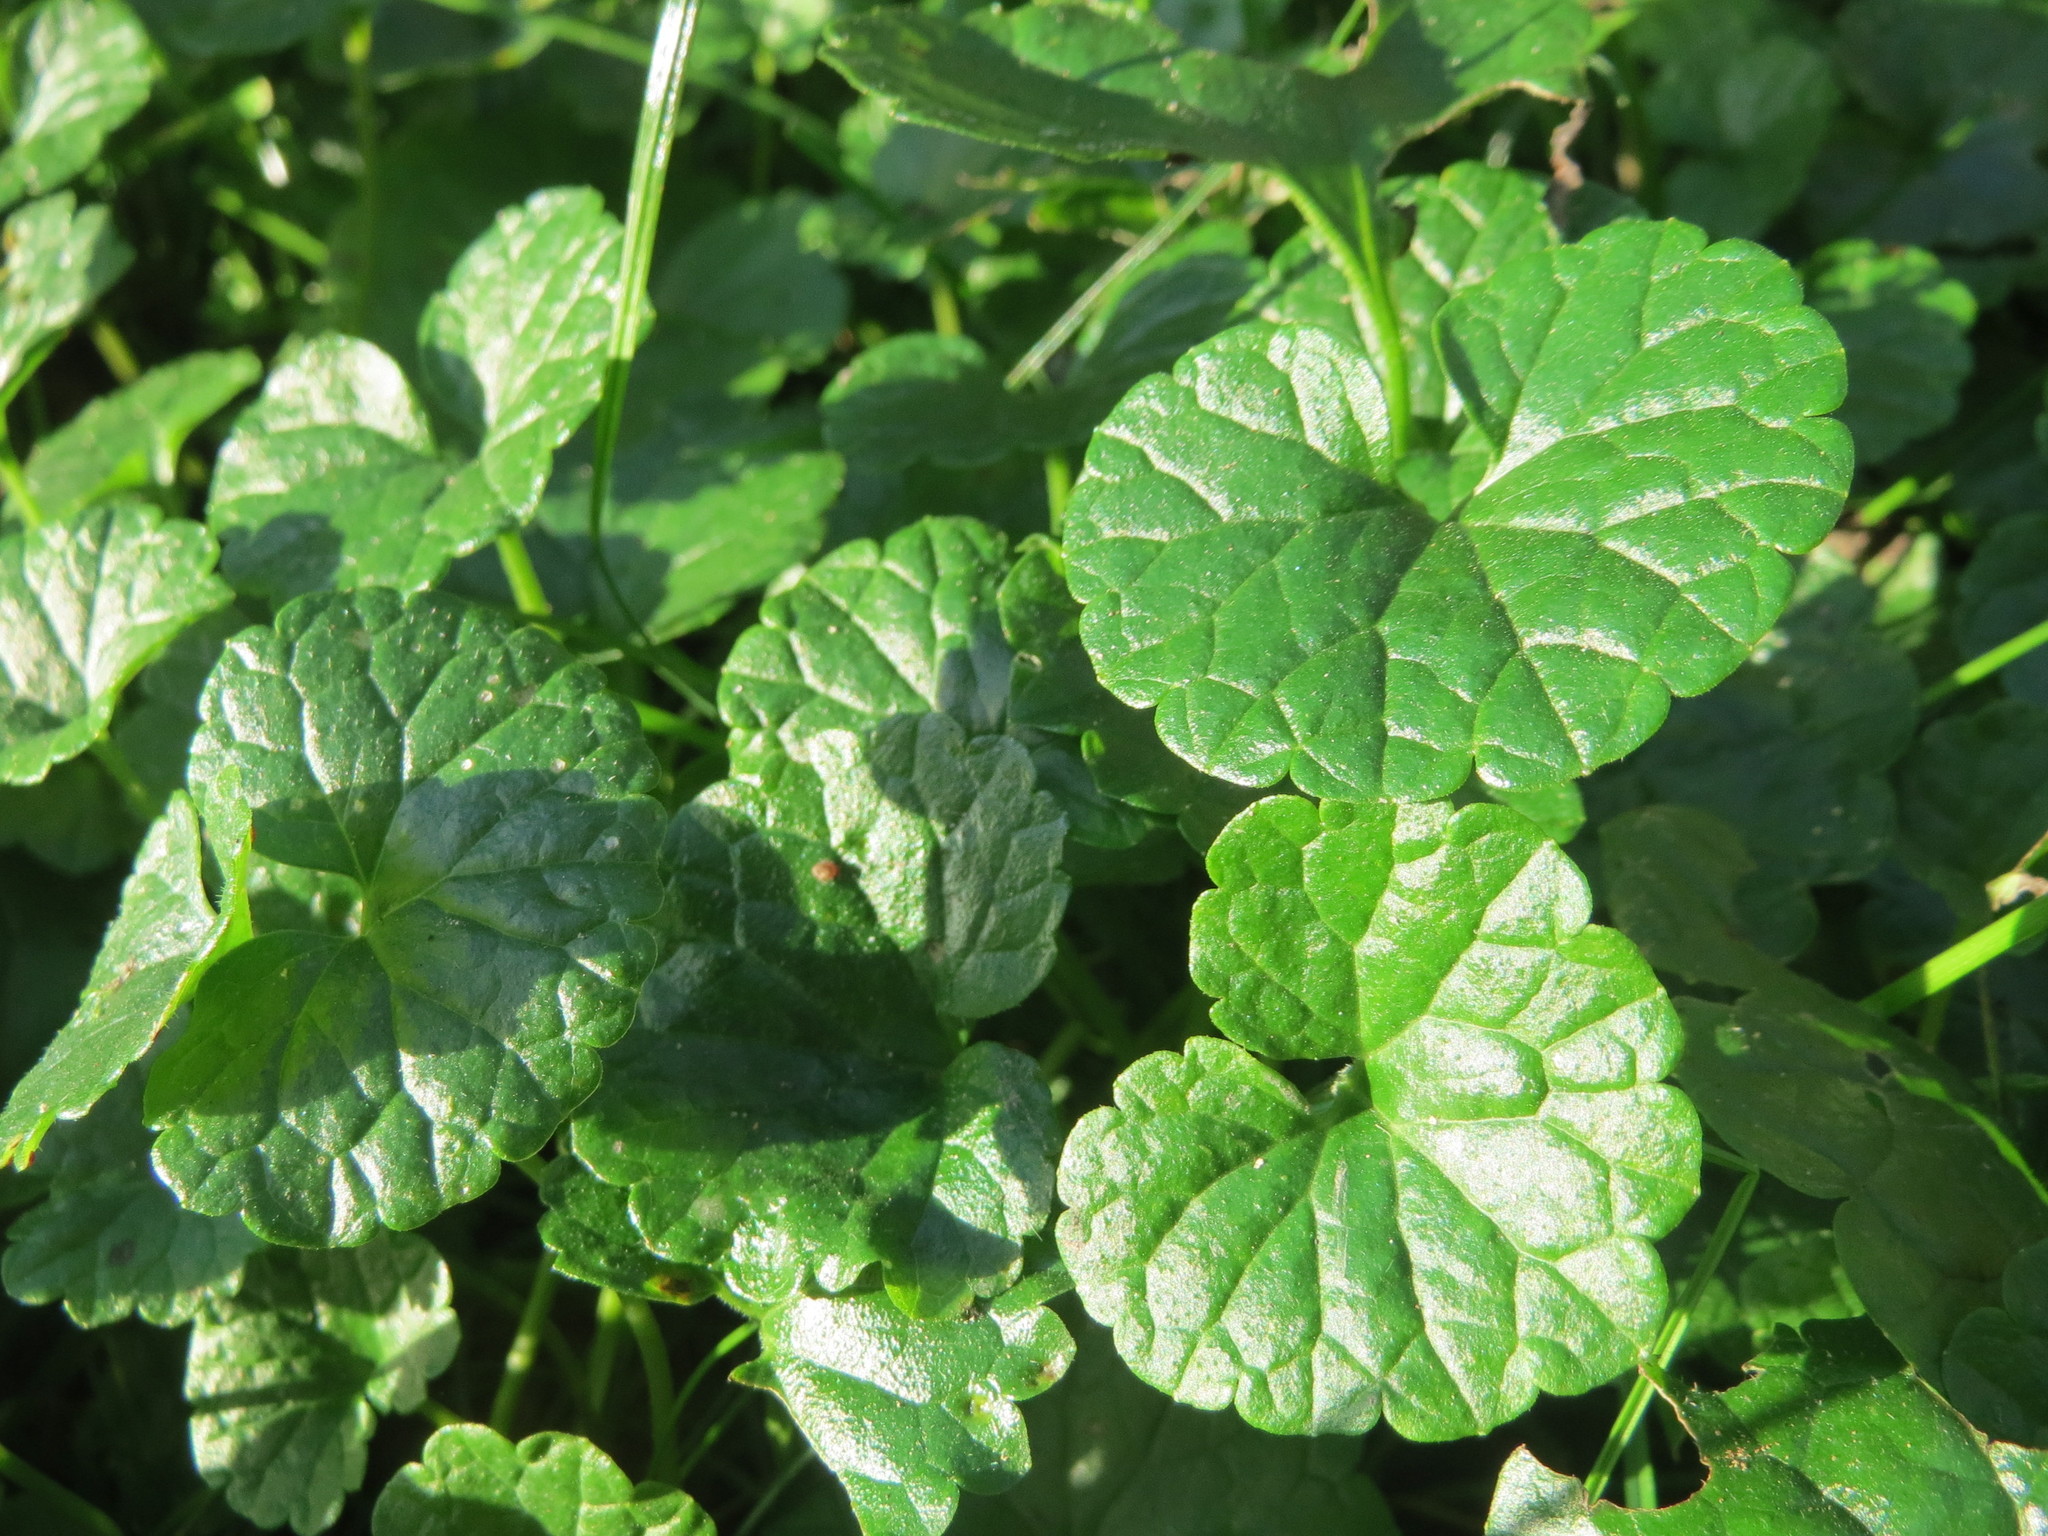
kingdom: Plantae
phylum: Tracheophyta
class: Magnoliopsida
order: Lamiales
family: Lamiaceae
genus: Glechoma
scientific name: Glechoma hederacea
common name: Ground ivy
